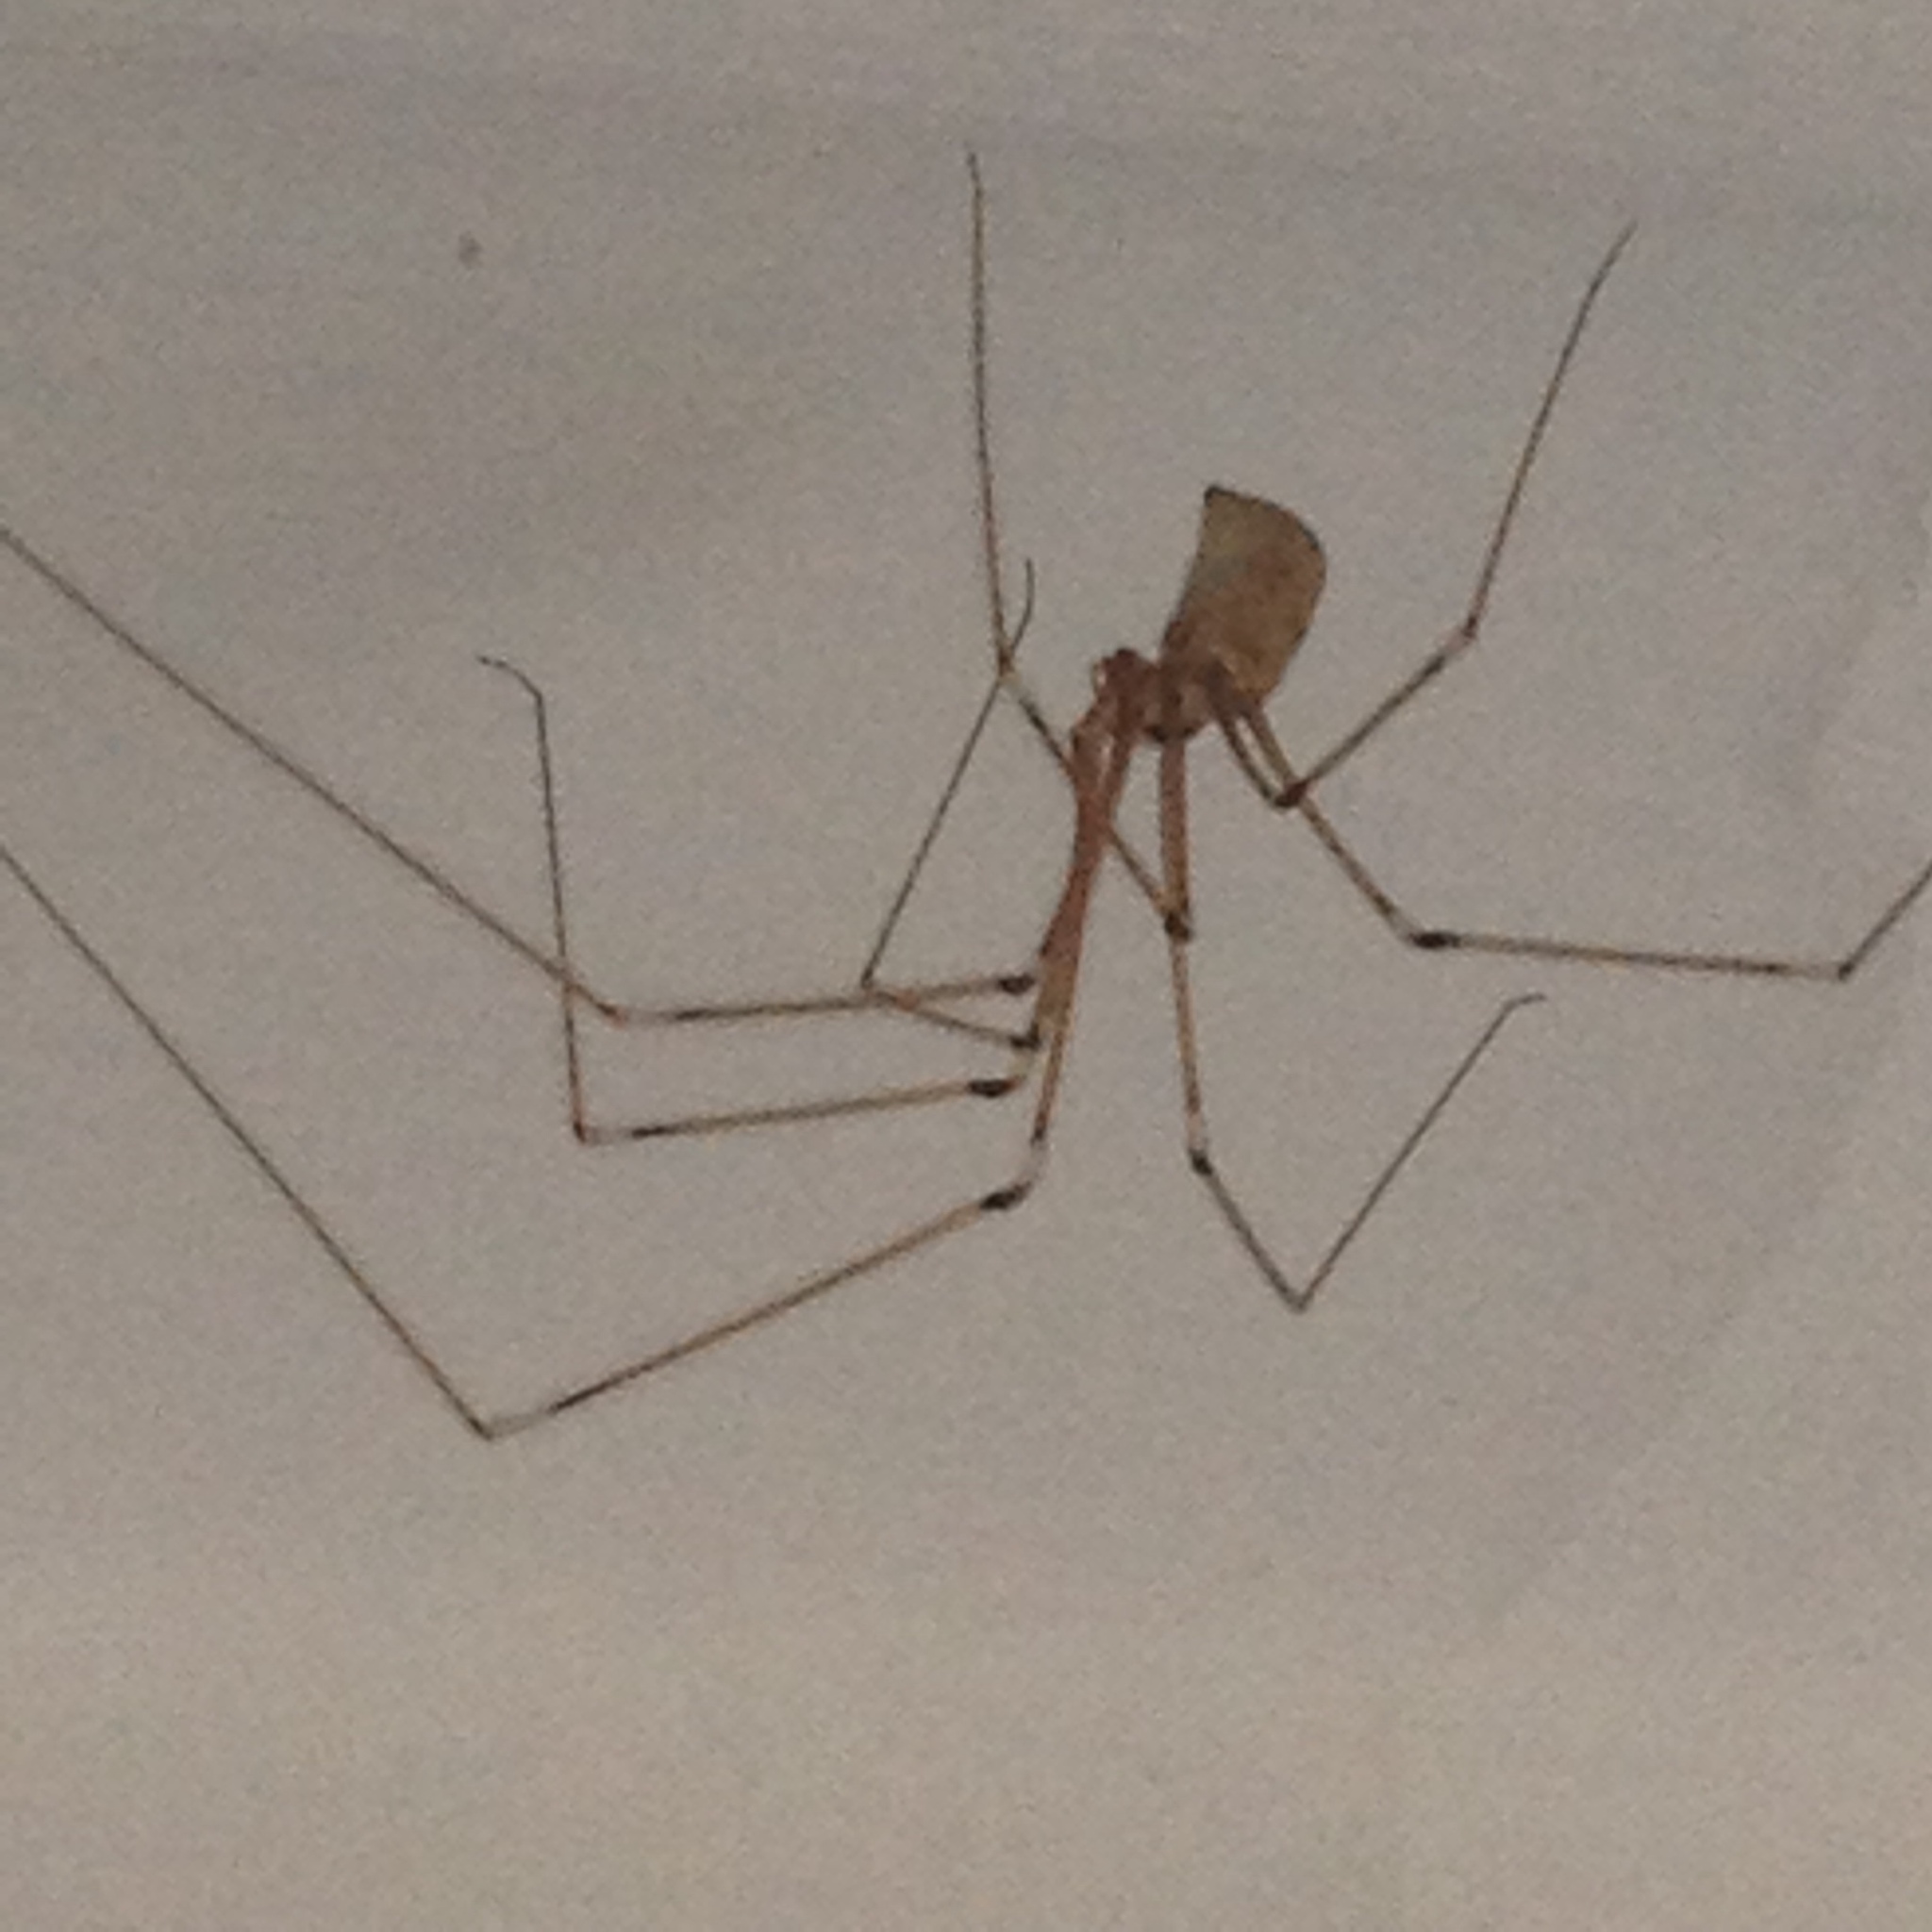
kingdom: Animalia
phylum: Arthropoda
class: Arachnida
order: Araneae
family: Pholcidae
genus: Pholcus
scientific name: Pholcus phalangioides
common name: Longbodied cellar spider
